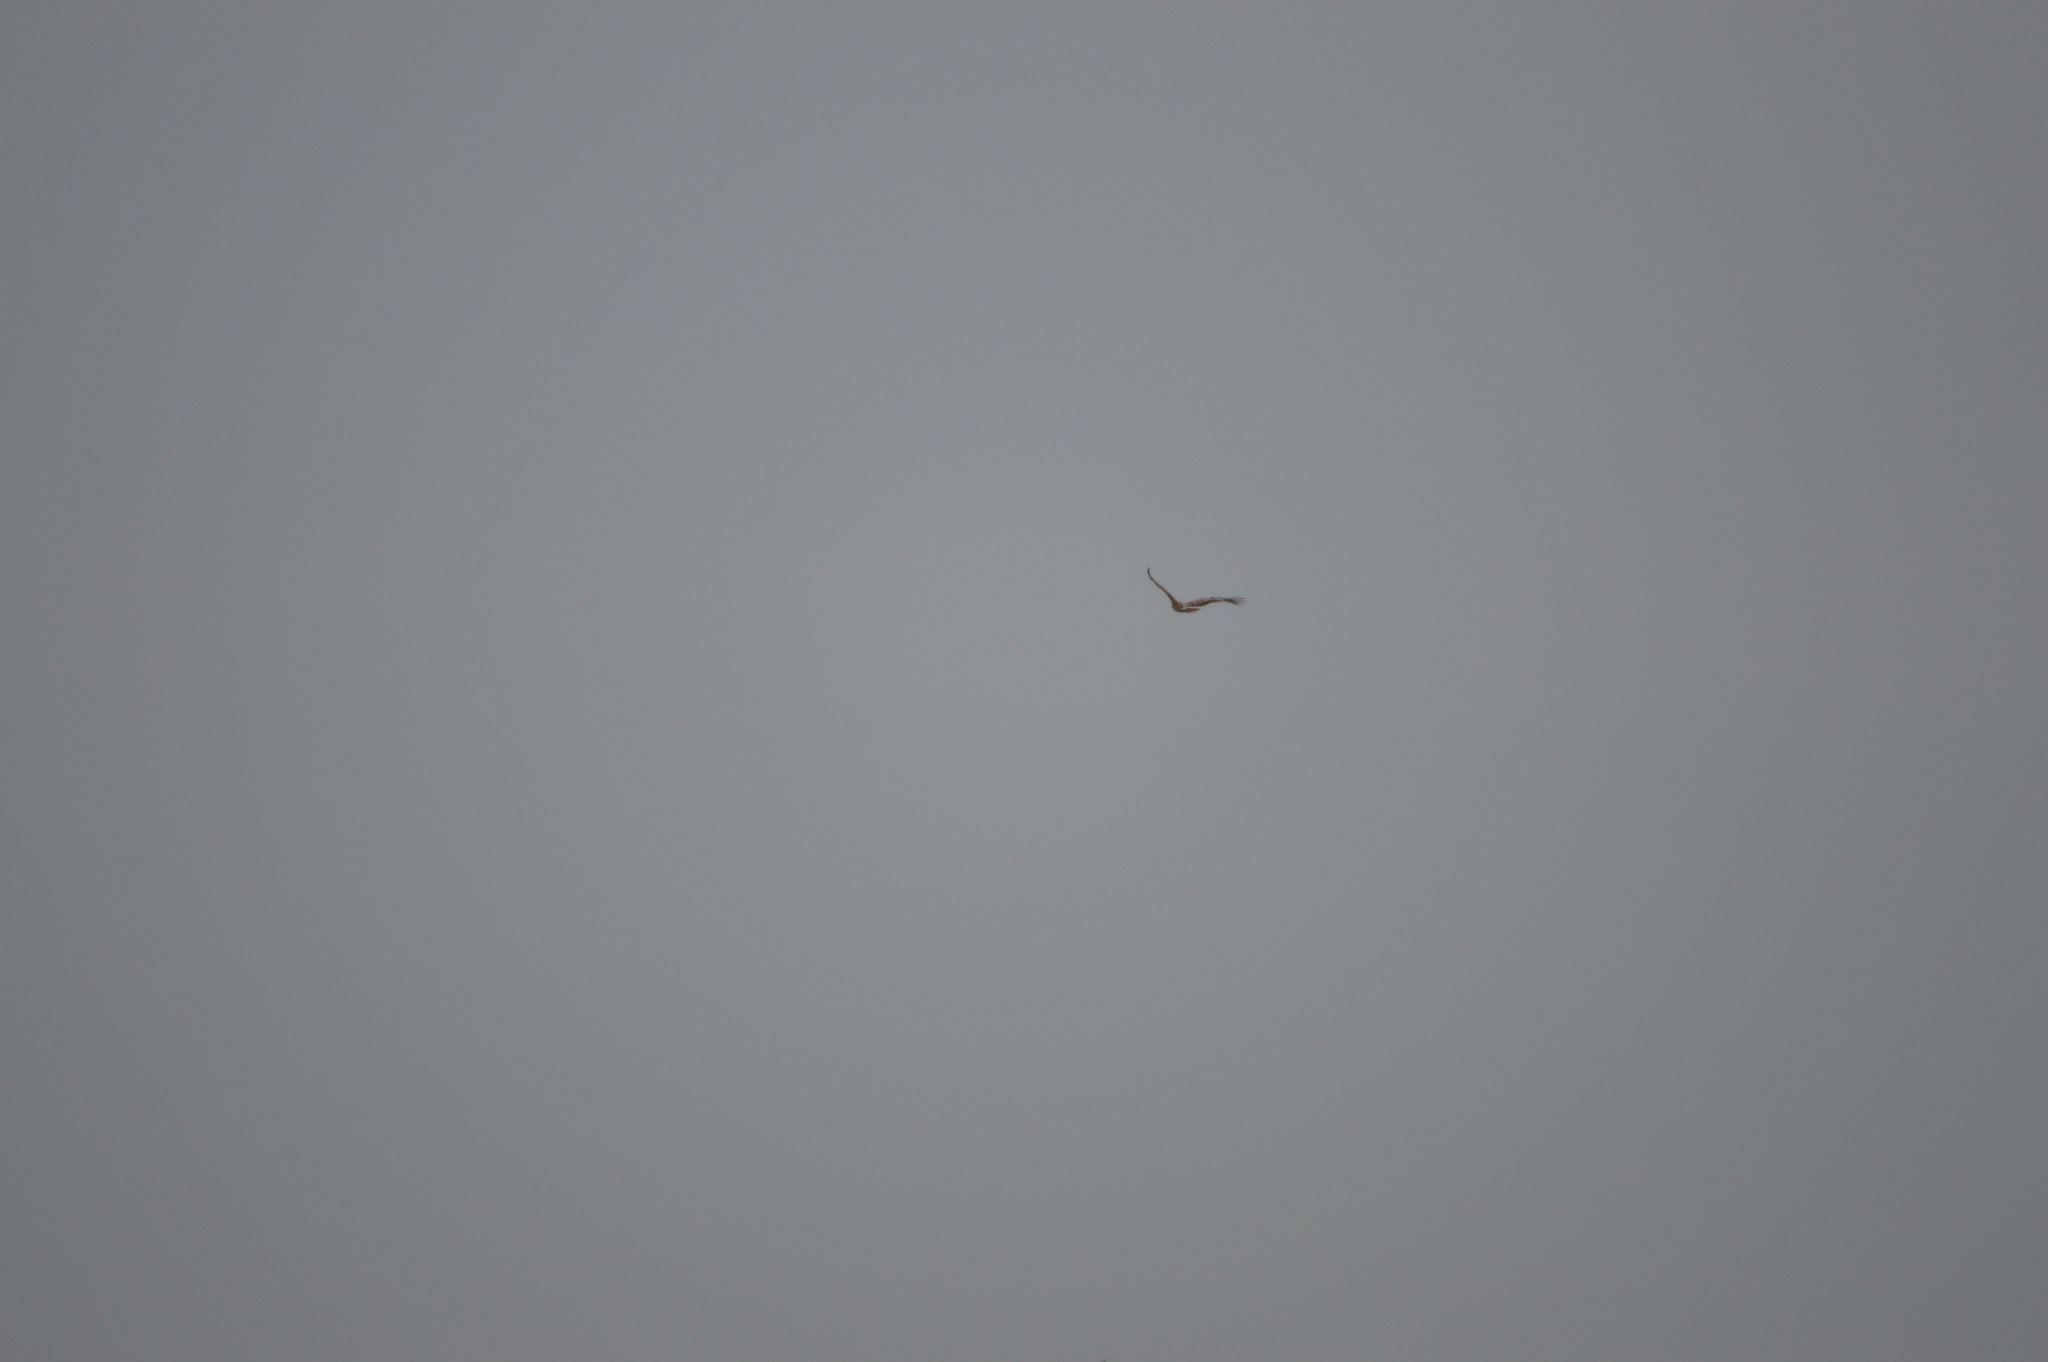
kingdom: Animalia
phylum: Chordata
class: Aves
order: Accipitriformes
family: Accipitridae
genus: Aquila
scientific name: Aquila heliaca
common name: Eastern imperial eagle
